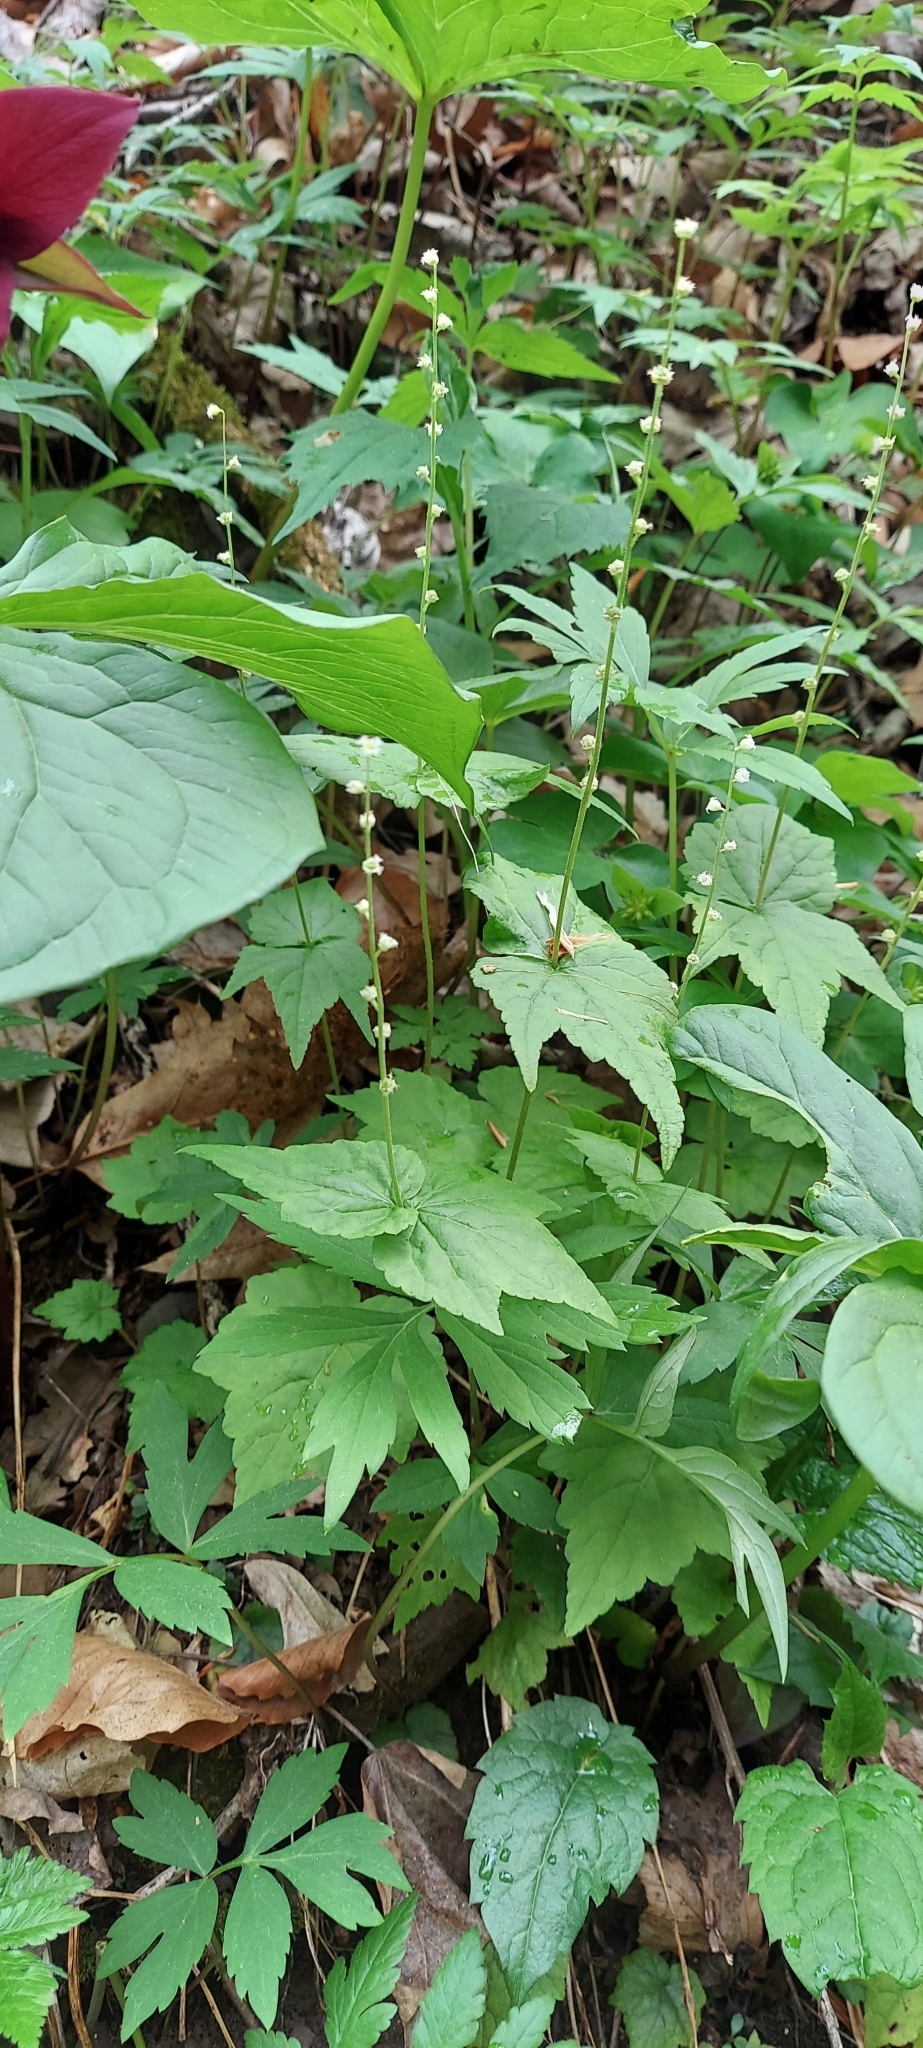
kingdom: Plantae
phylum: Tracheophyta
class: Magnoliopsida
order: Saxifragales
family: Saxifragaceae
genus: Mitella
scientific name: Mitella diphylla
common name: Coolwort
